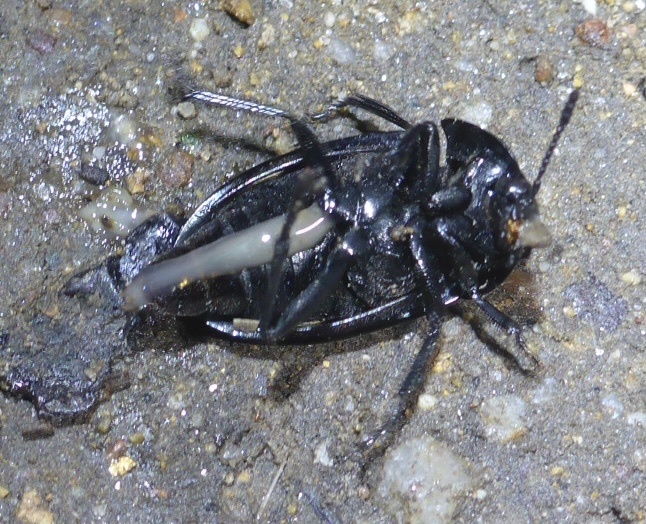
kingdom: Animalia
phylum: Arthropoda
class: Insecta
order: Coleoptera
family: Staphylinidae
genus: Heterosilpha
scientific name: Heterosilpha ramosa
